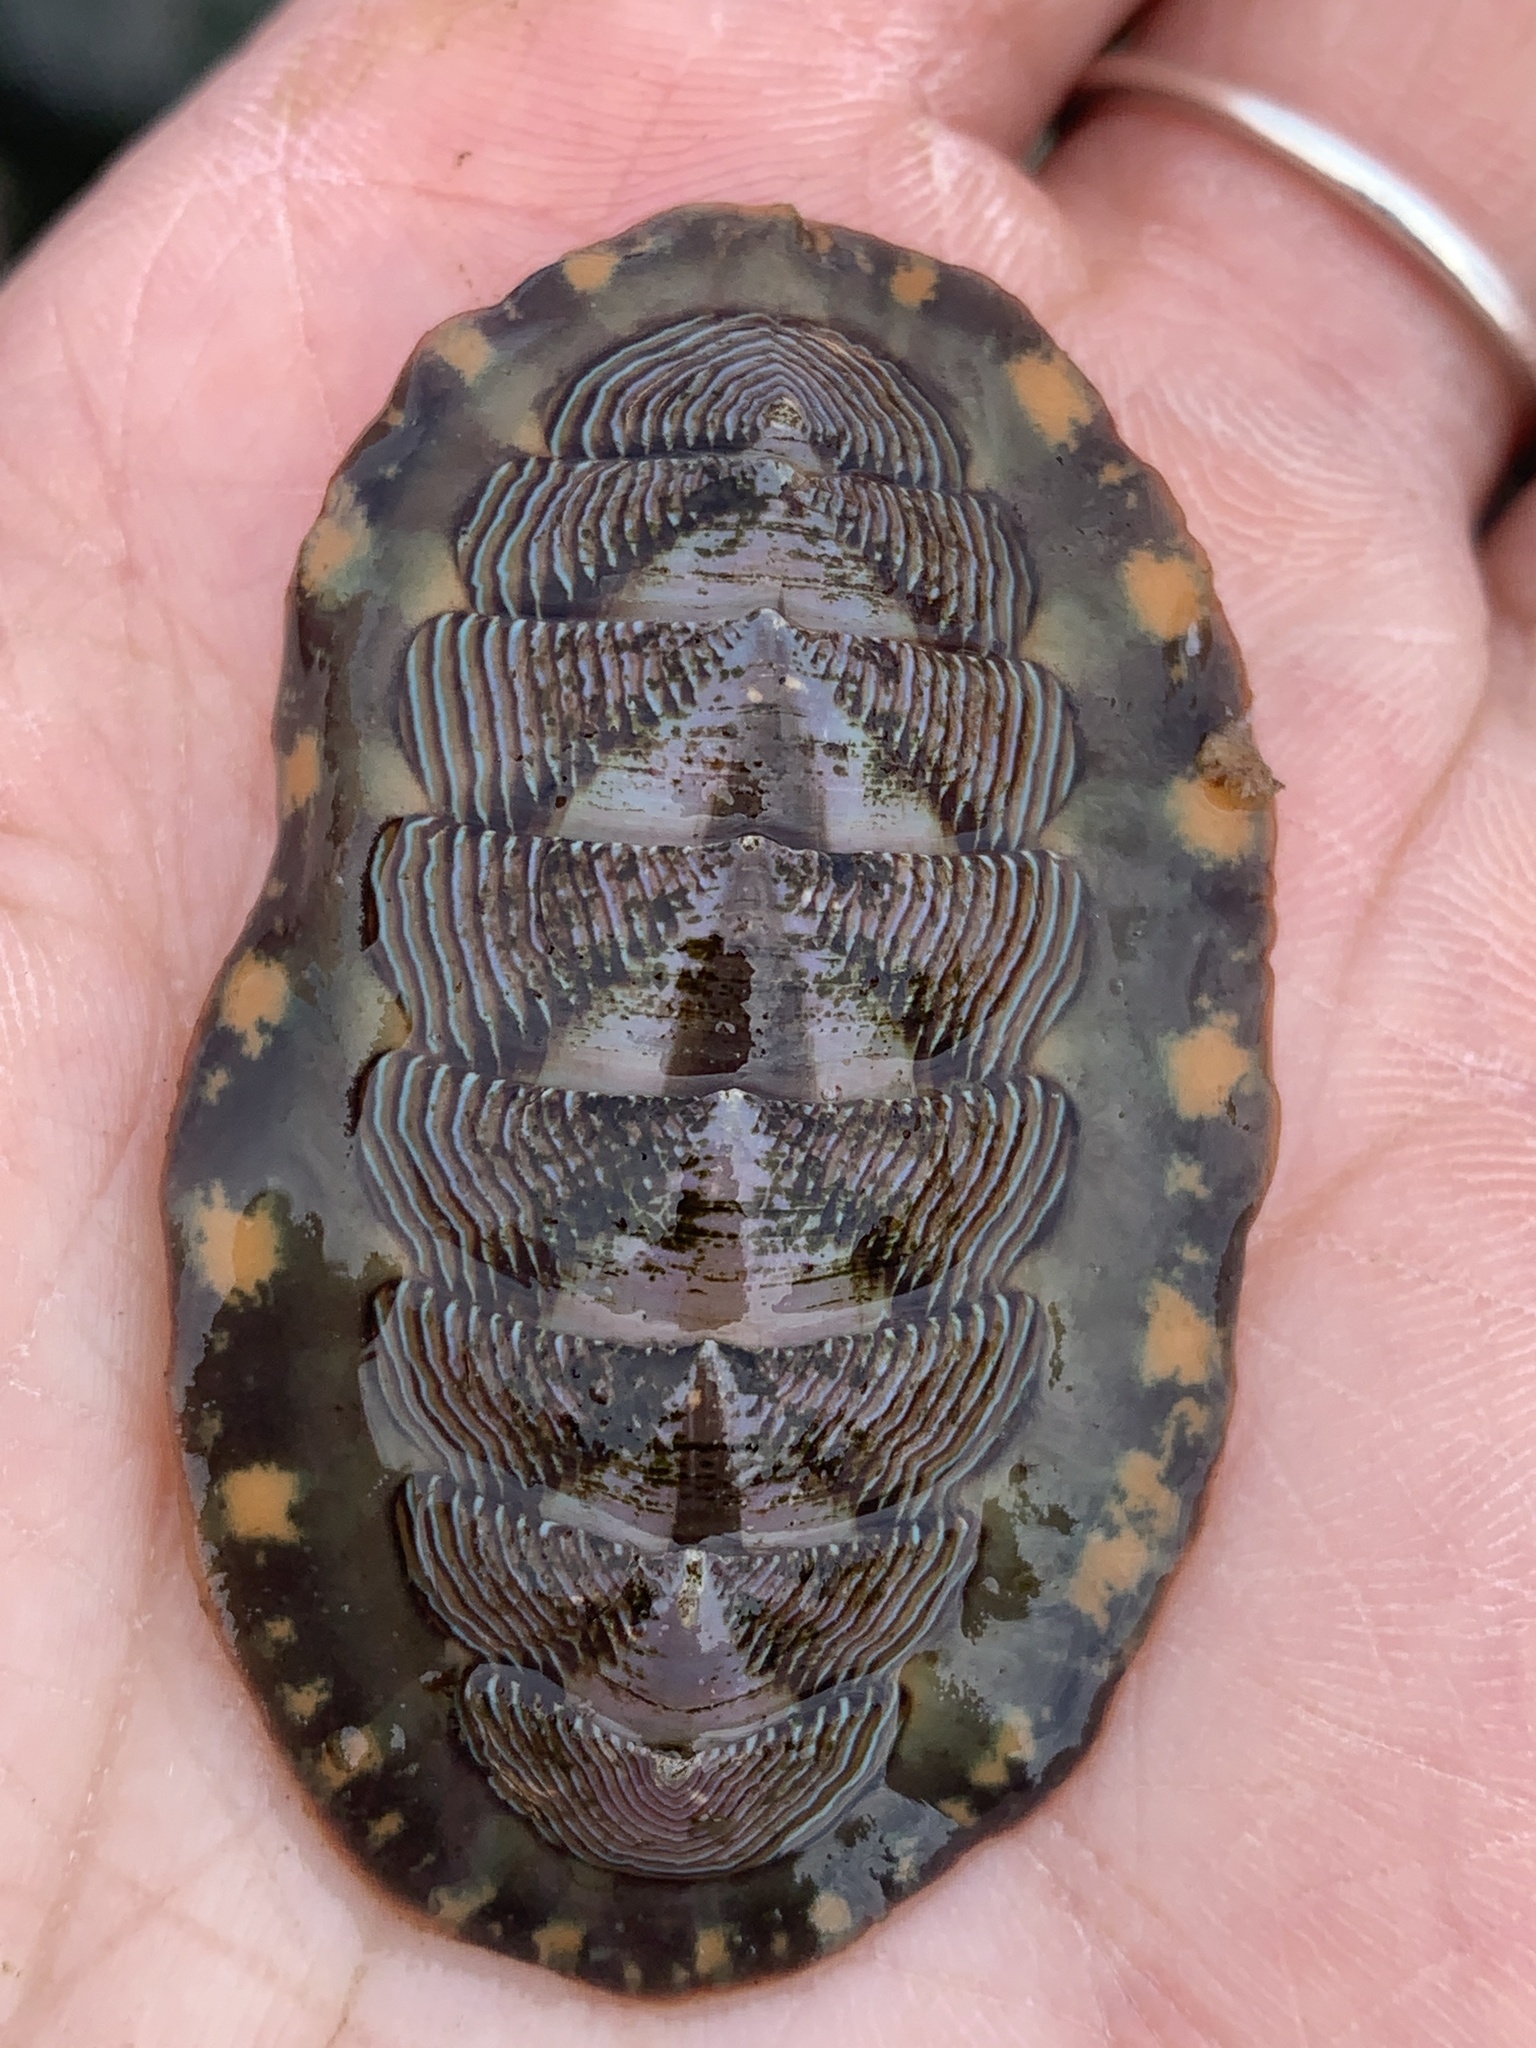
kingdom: Animalia
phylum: Mollusca
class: Polyplacophora
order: Chitonida
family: Tonicellidae
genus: Tonicella
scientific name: Tonicella lineata
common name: Lined chiton
